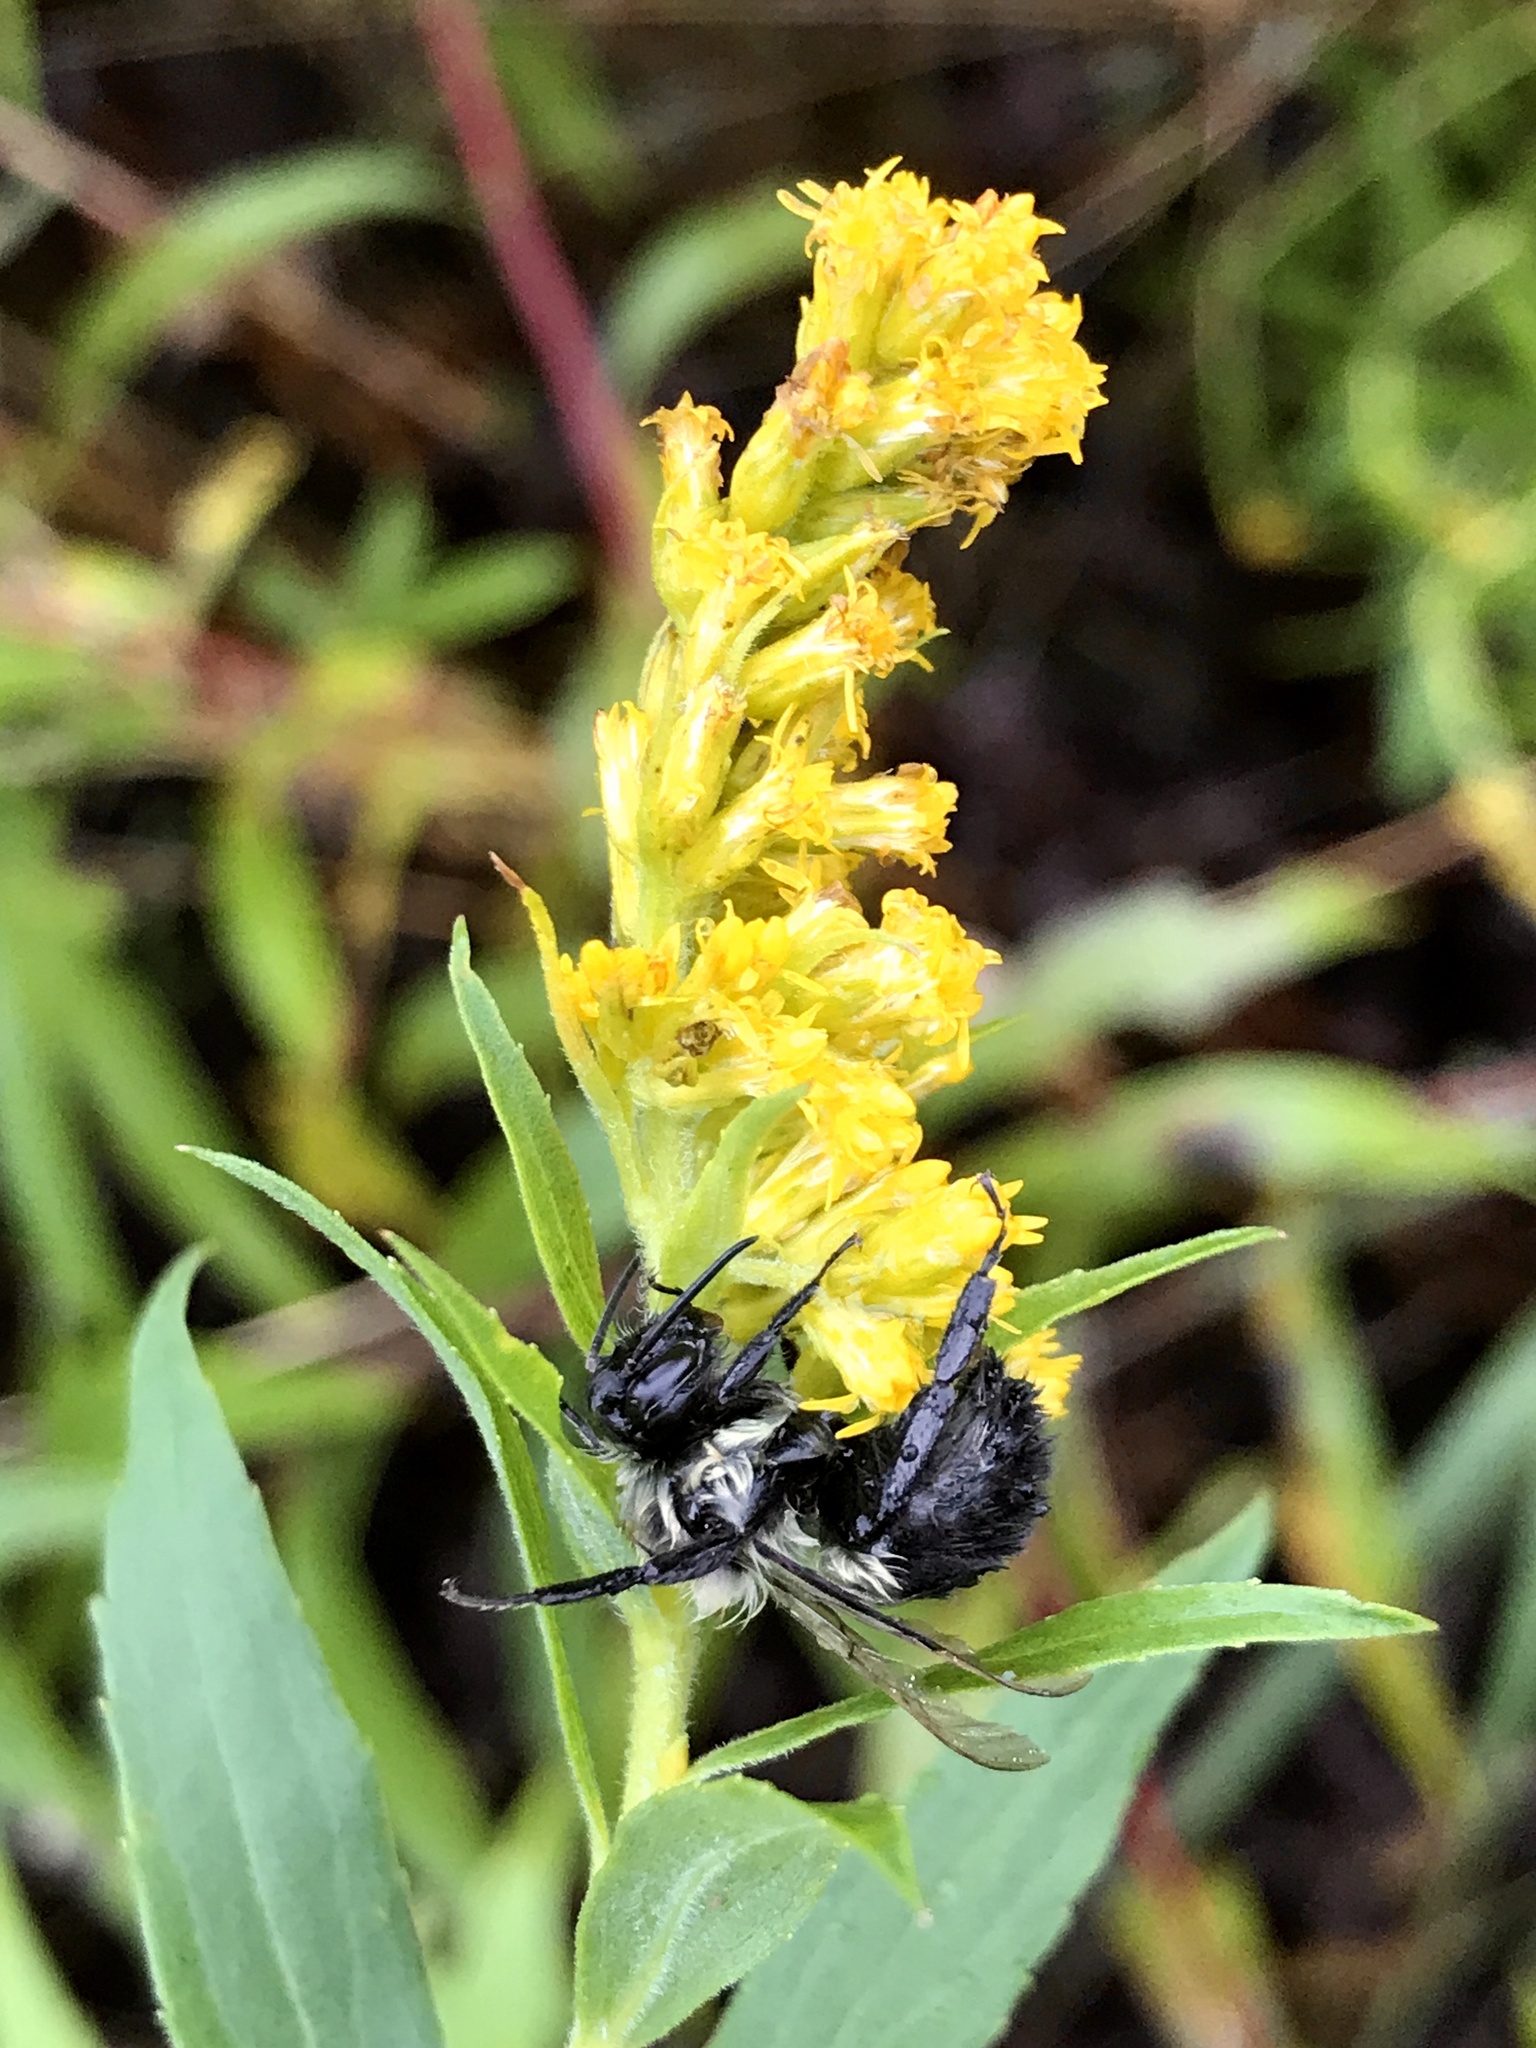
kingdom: Animalia
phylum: Arthropoda
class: Insecta
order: Hymenoptera
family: Apidae
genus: Bombus
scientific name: Bombus impatiens
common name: Common eastern bumble bee
